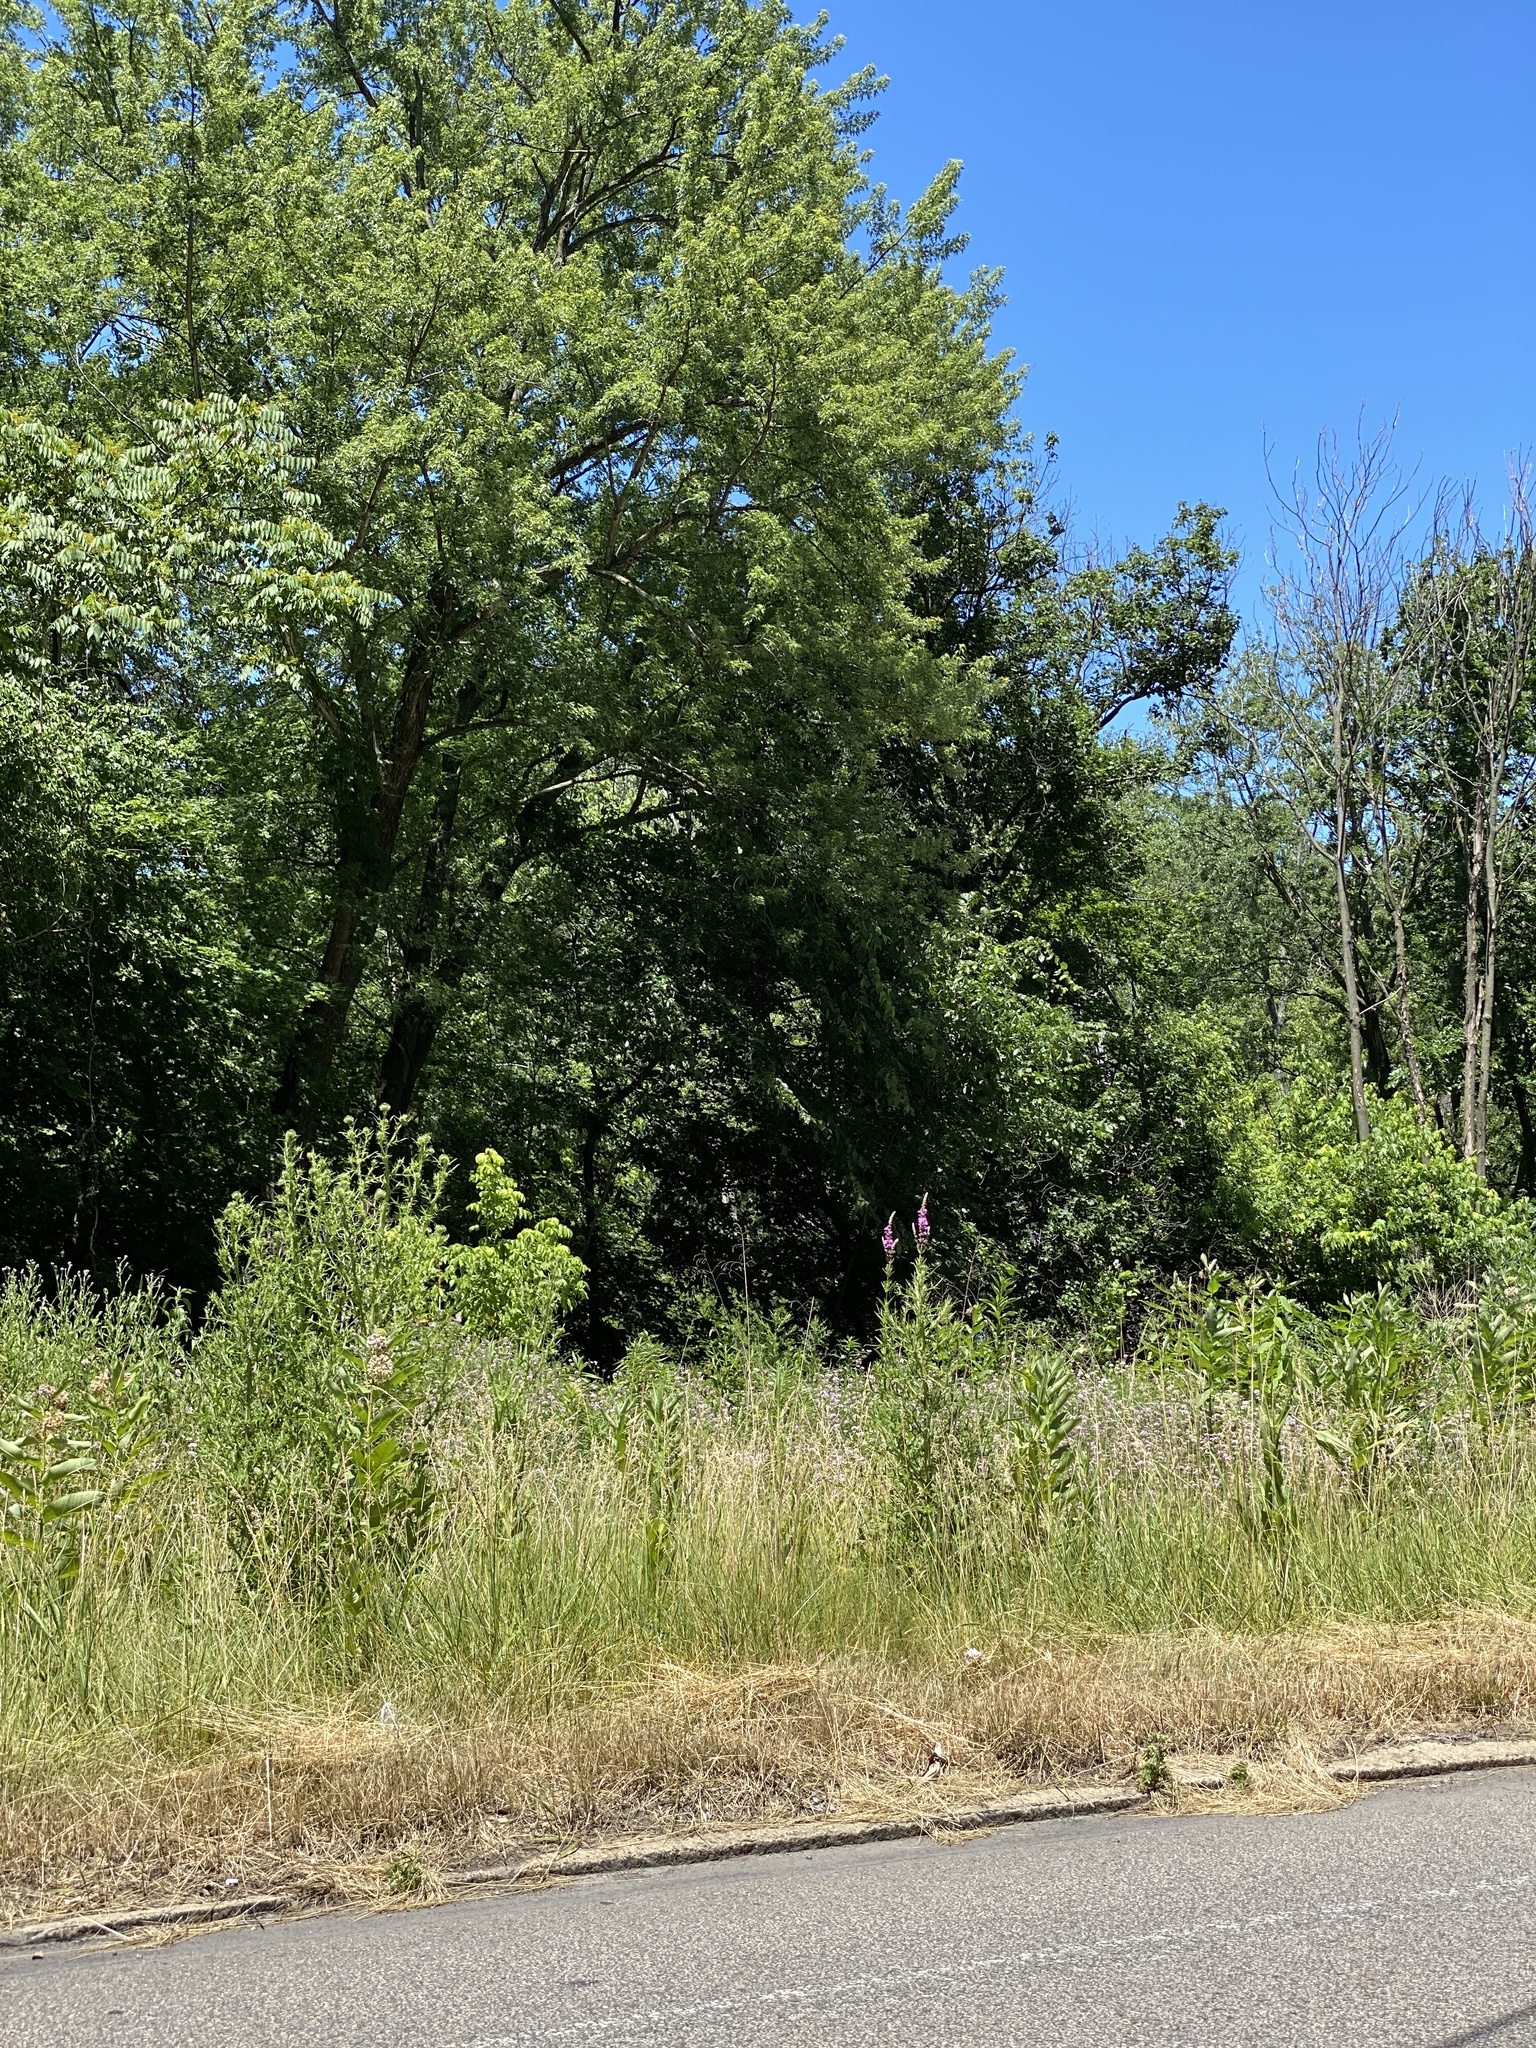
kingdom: Plantae
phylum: Tracheophyta
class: Magnoliopsida
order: Myrtales
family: Lythraceae
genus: Lythrum
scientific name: Lythrum salicaria
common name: Purple loosestrife
